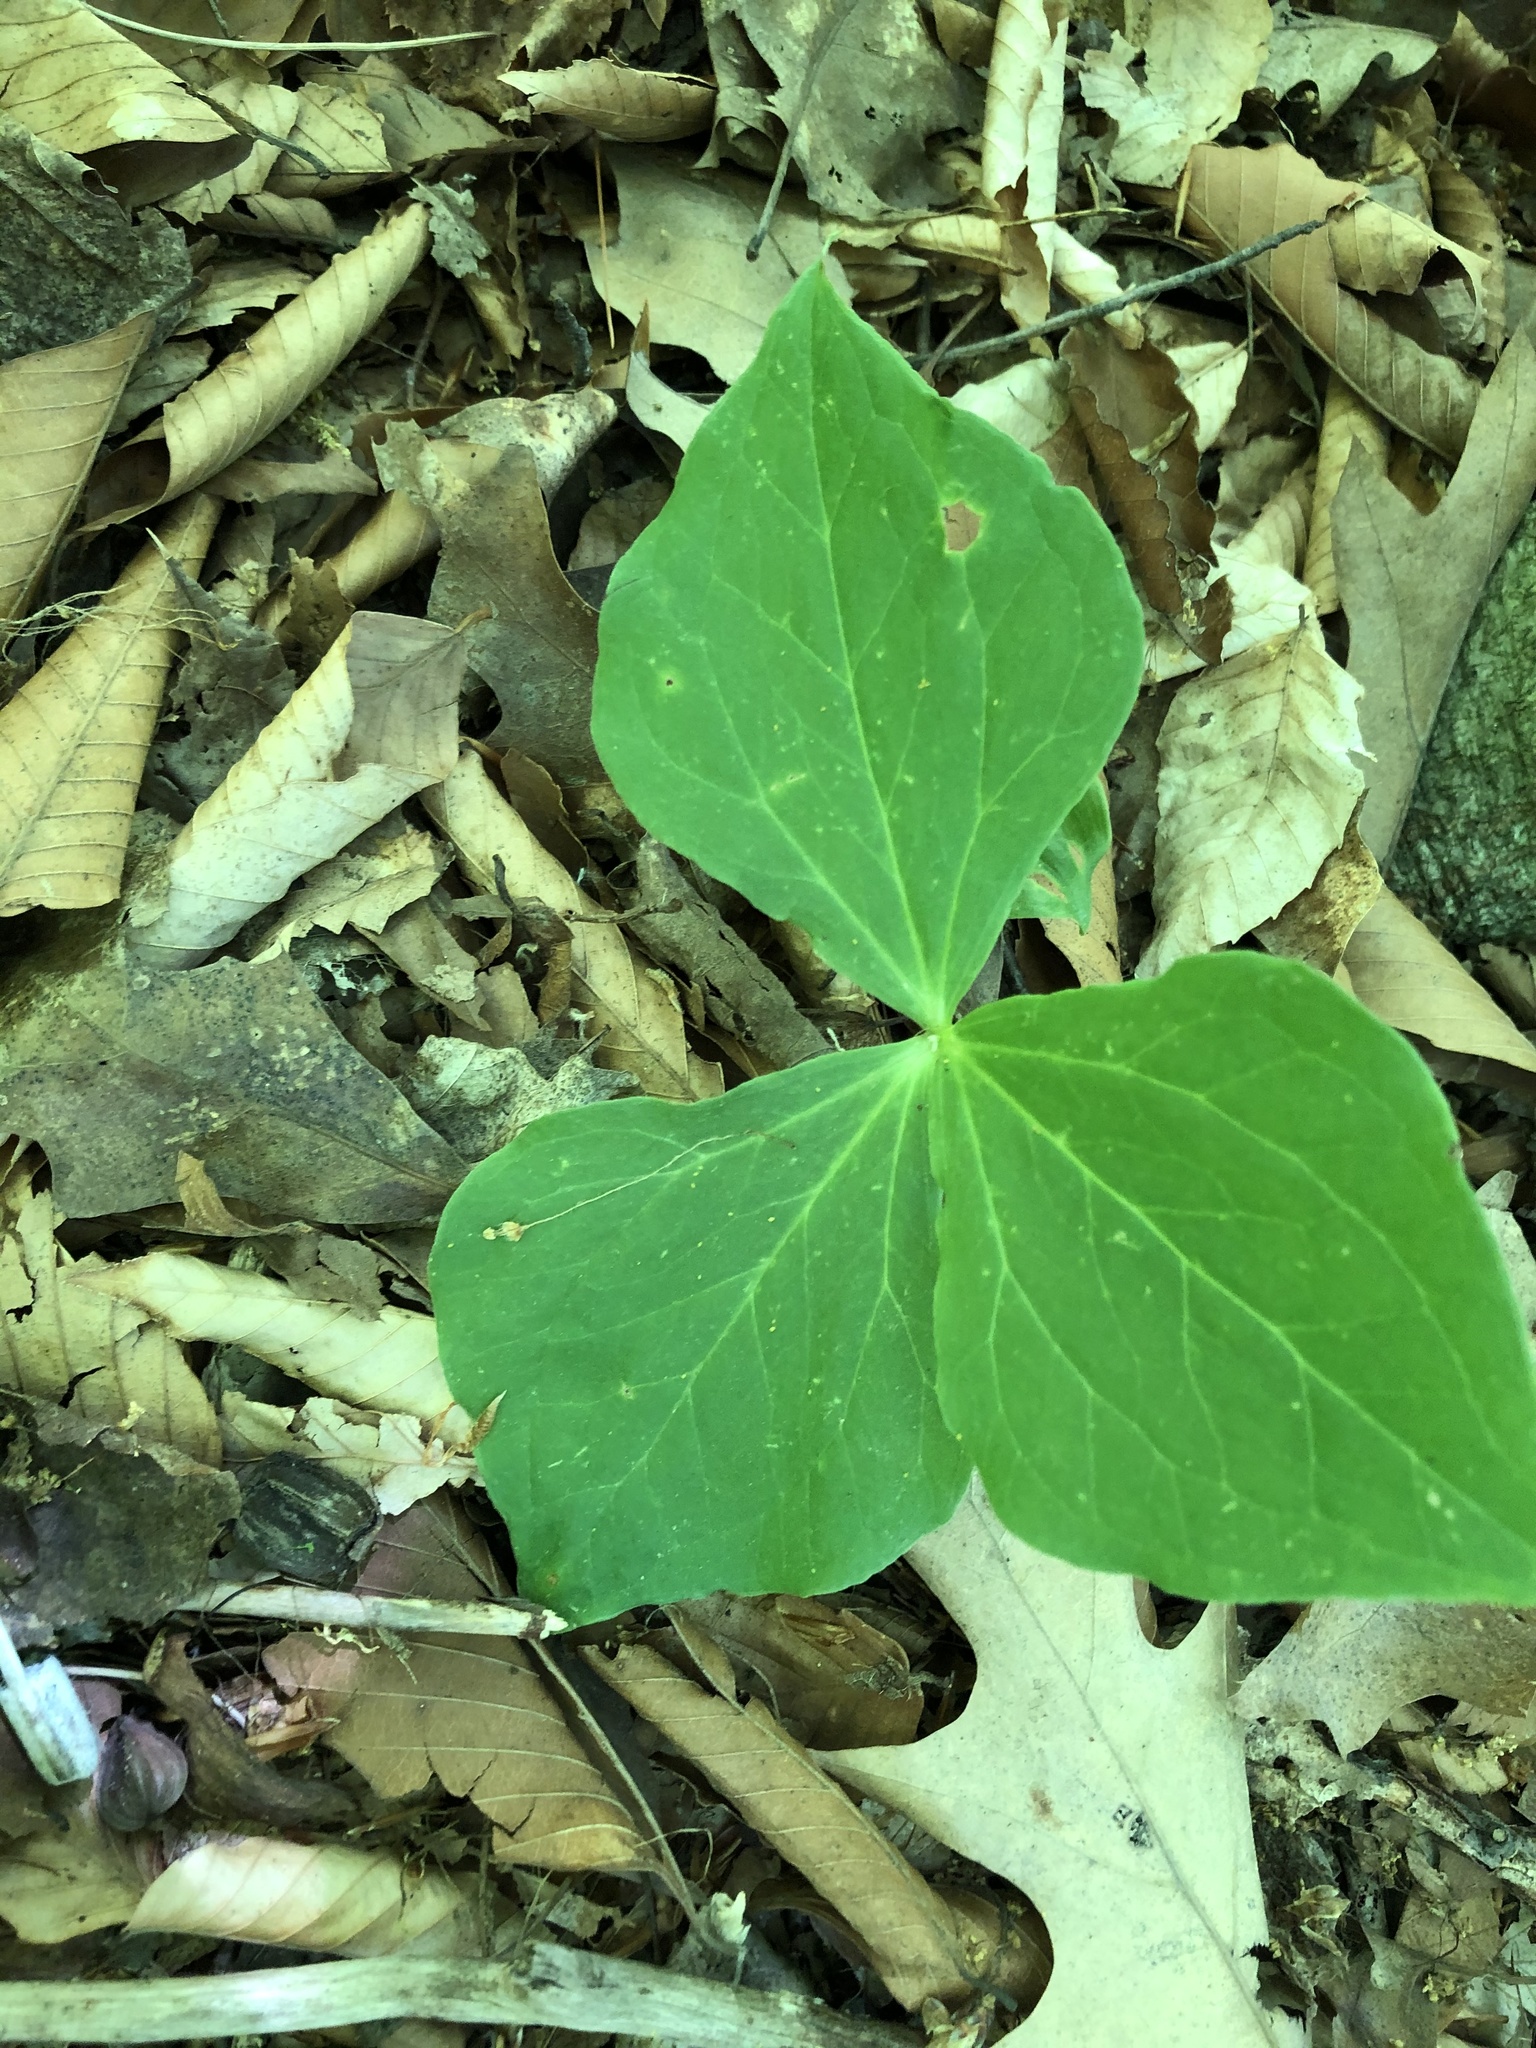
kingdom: Plantae
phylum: Tracheophyta
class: Liliopsida
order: Liliales
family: Melanthiaceae
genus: Trillium
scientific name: Trillium grandiflorum
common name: Great white trillium
